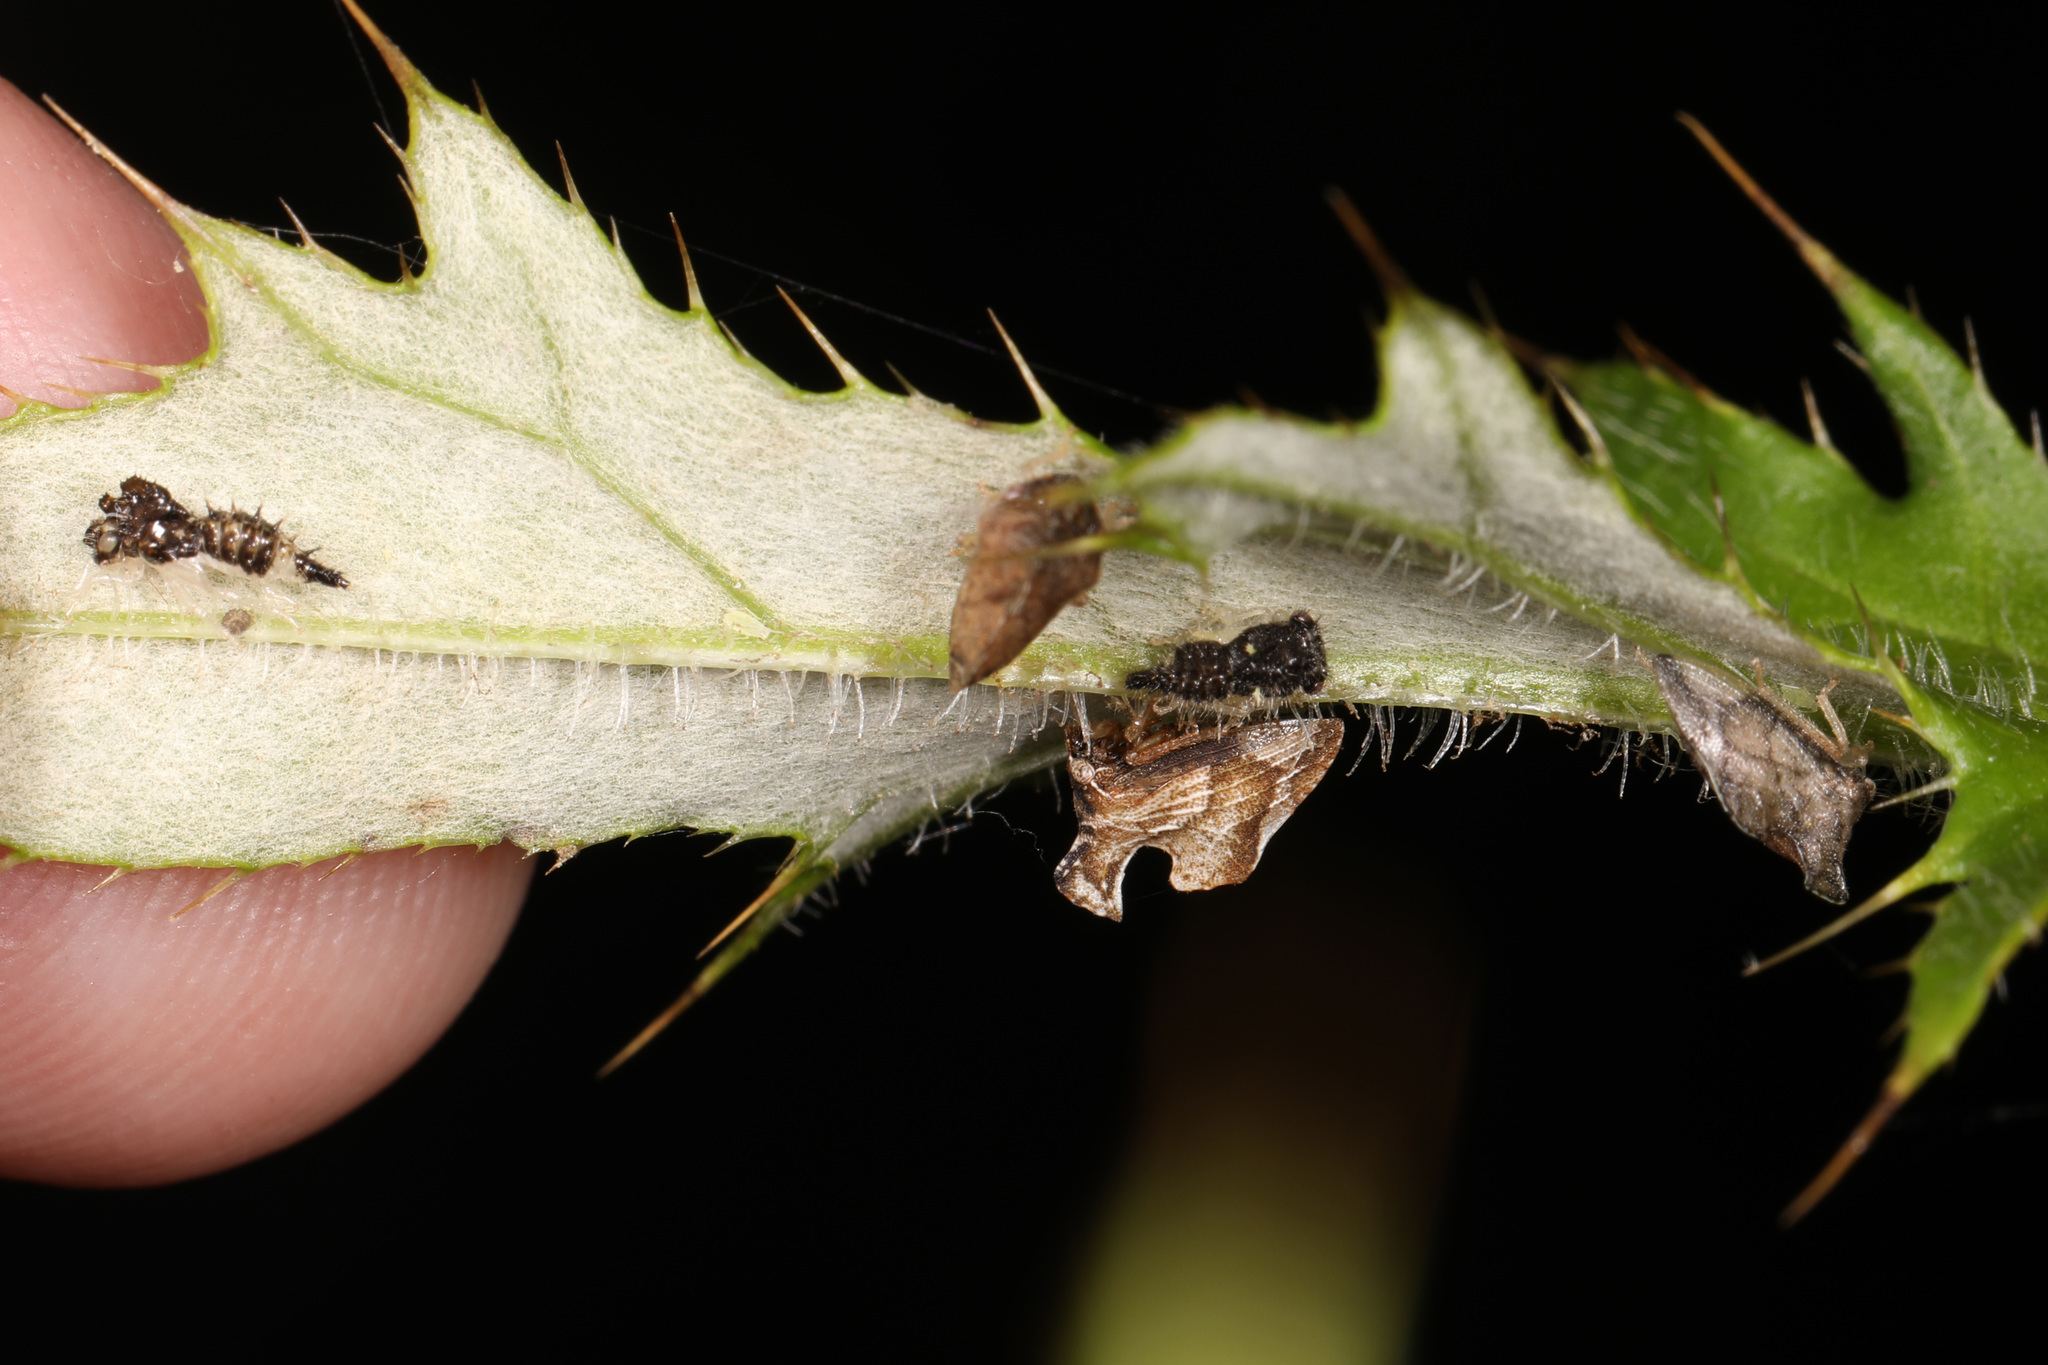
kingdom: Animalia
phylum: Arthropoda
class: Insecta
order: Hemiptera
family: Membracidae
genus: Entylia
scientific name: Entylia carinata
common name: Keeled treehopper
